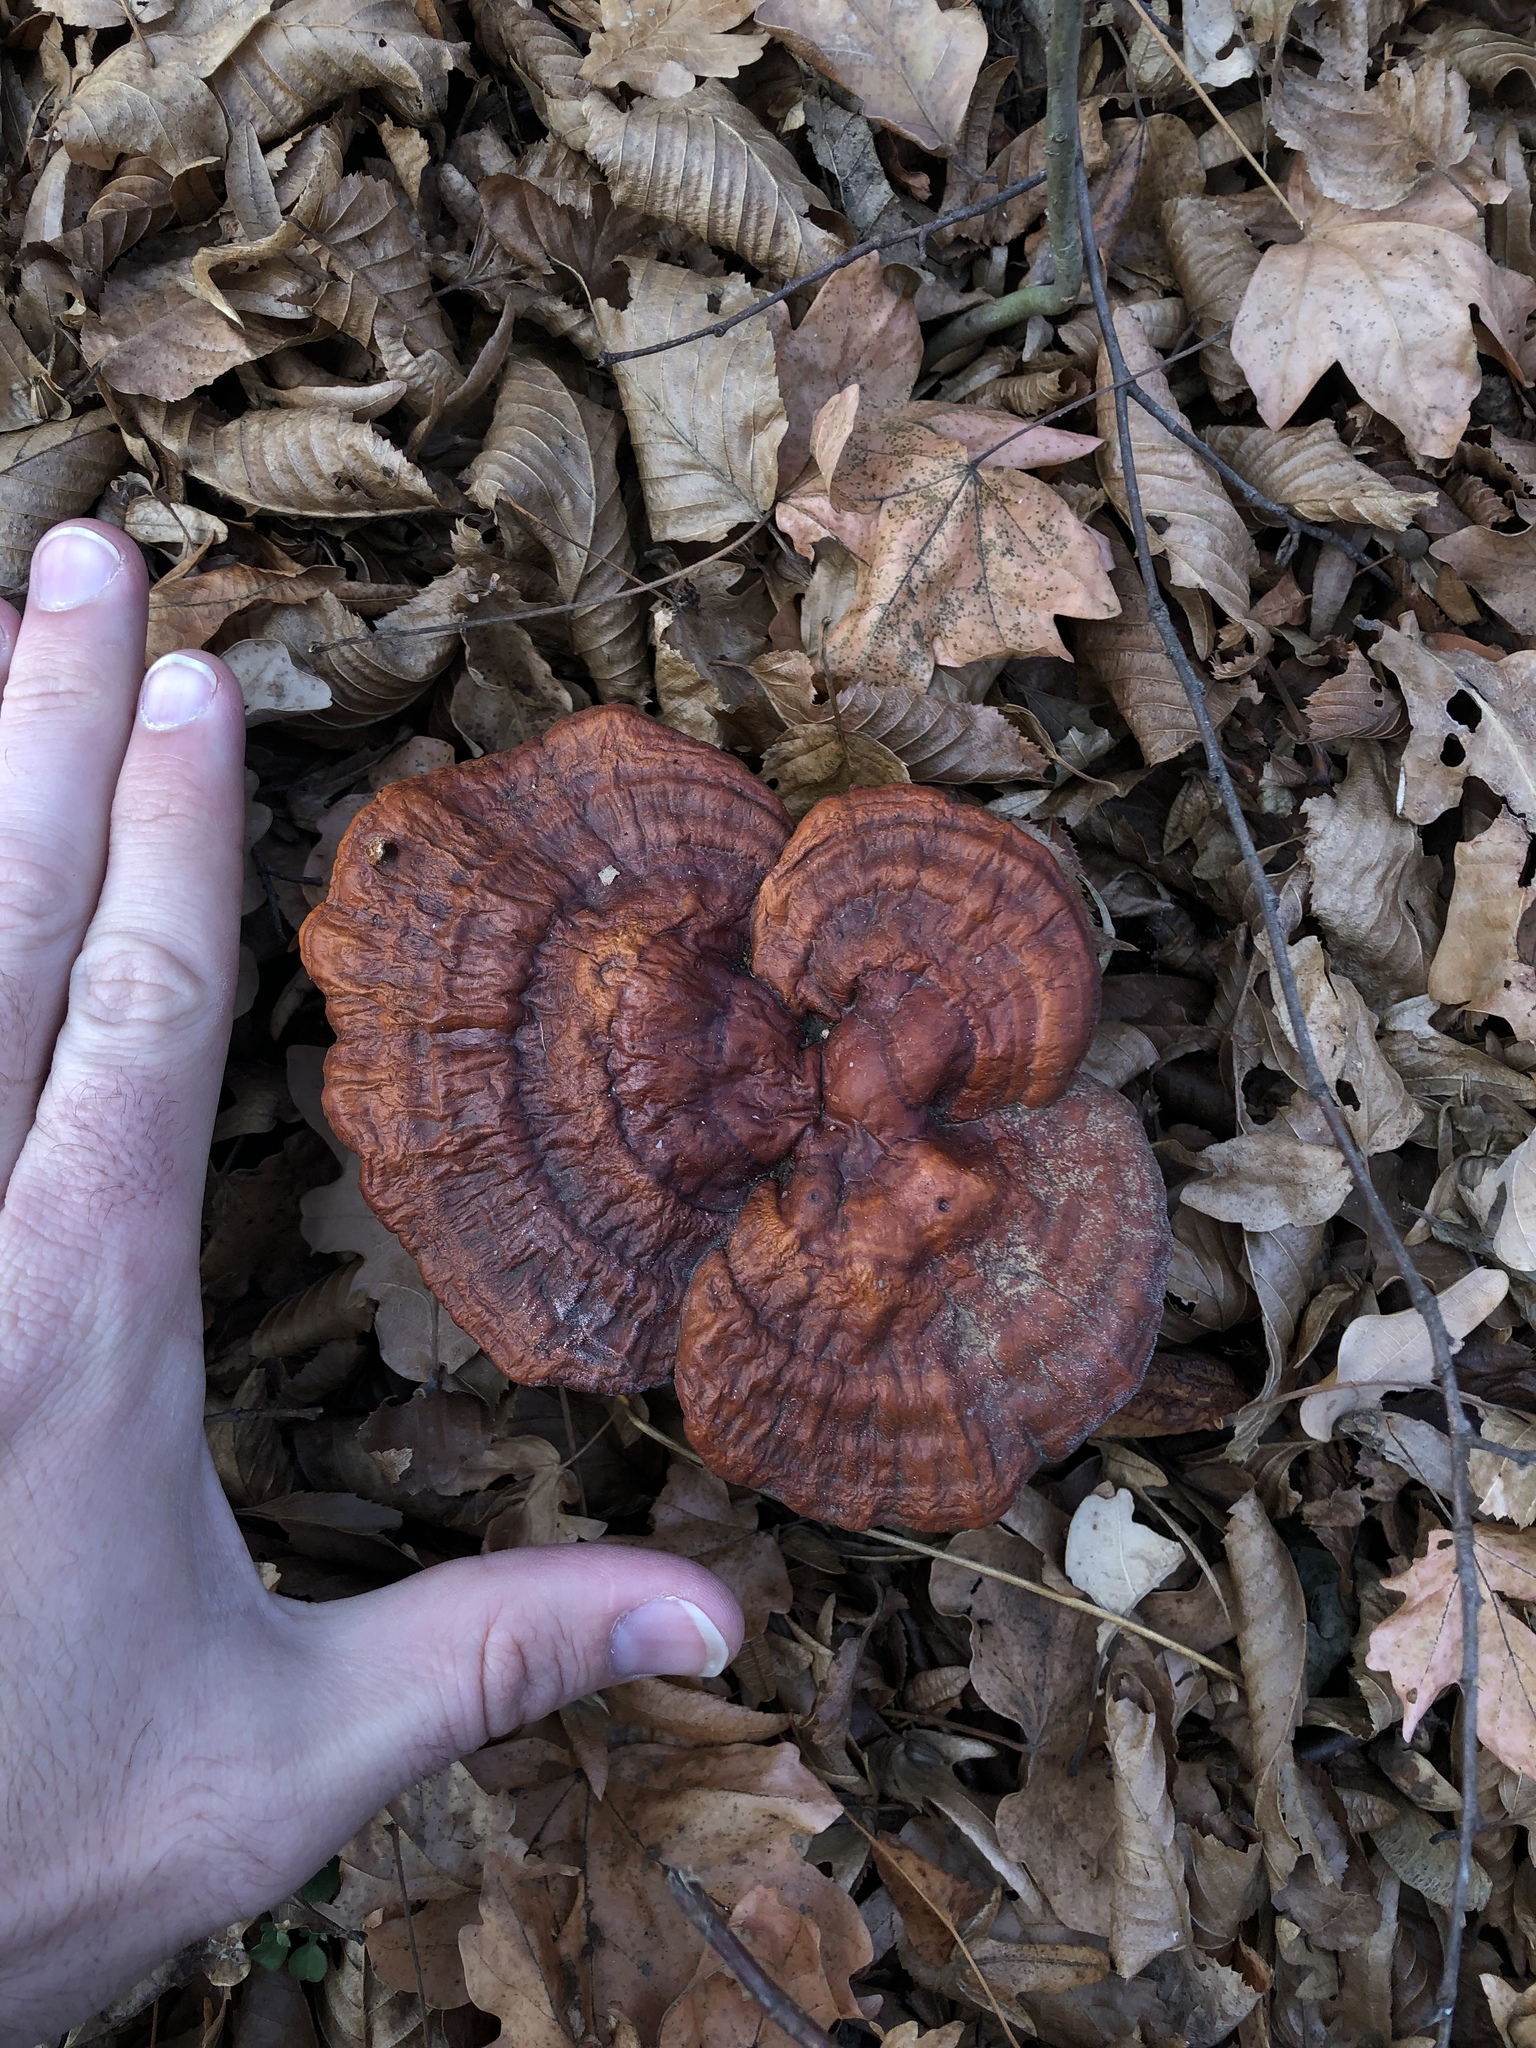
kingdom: Fungi
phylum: Basidiomycota
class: Agaricomycetes
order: Polyporales
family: Polyporaceae
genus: Ganoderma
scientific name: Ganoderma lucidum
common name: Lacquered bracket
